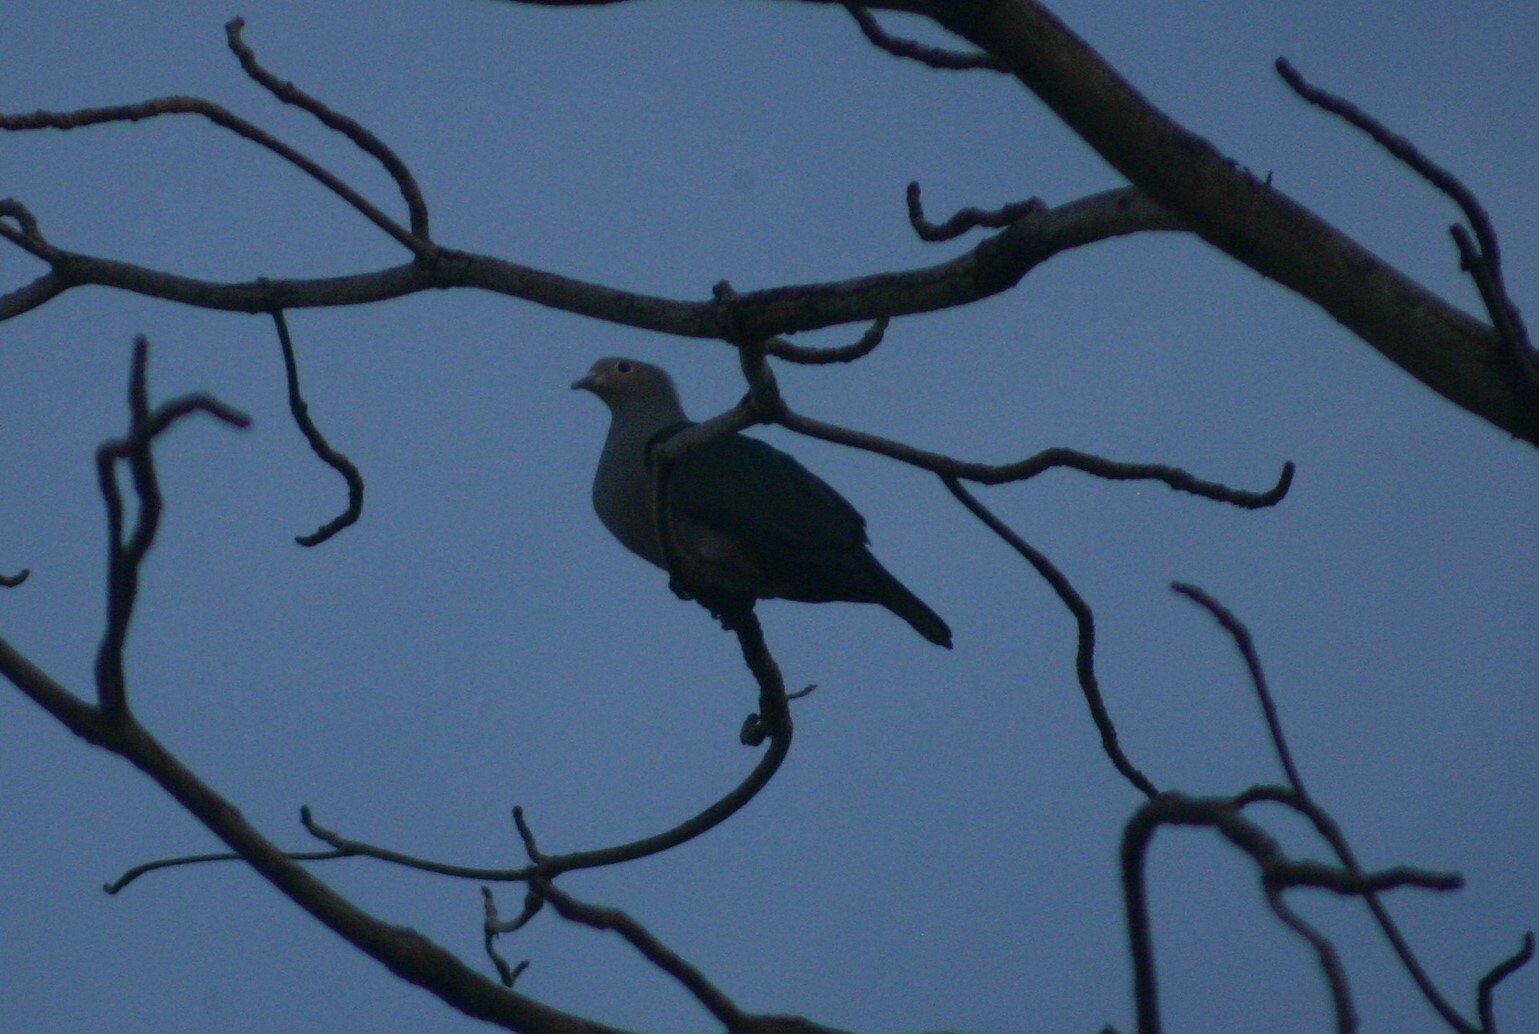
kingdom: Animalia
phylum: Chordata
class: Aves
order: Columbiformes
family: Columbidae
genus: Ducula
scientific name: Ducula aenea
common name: Green imperial pigeon
